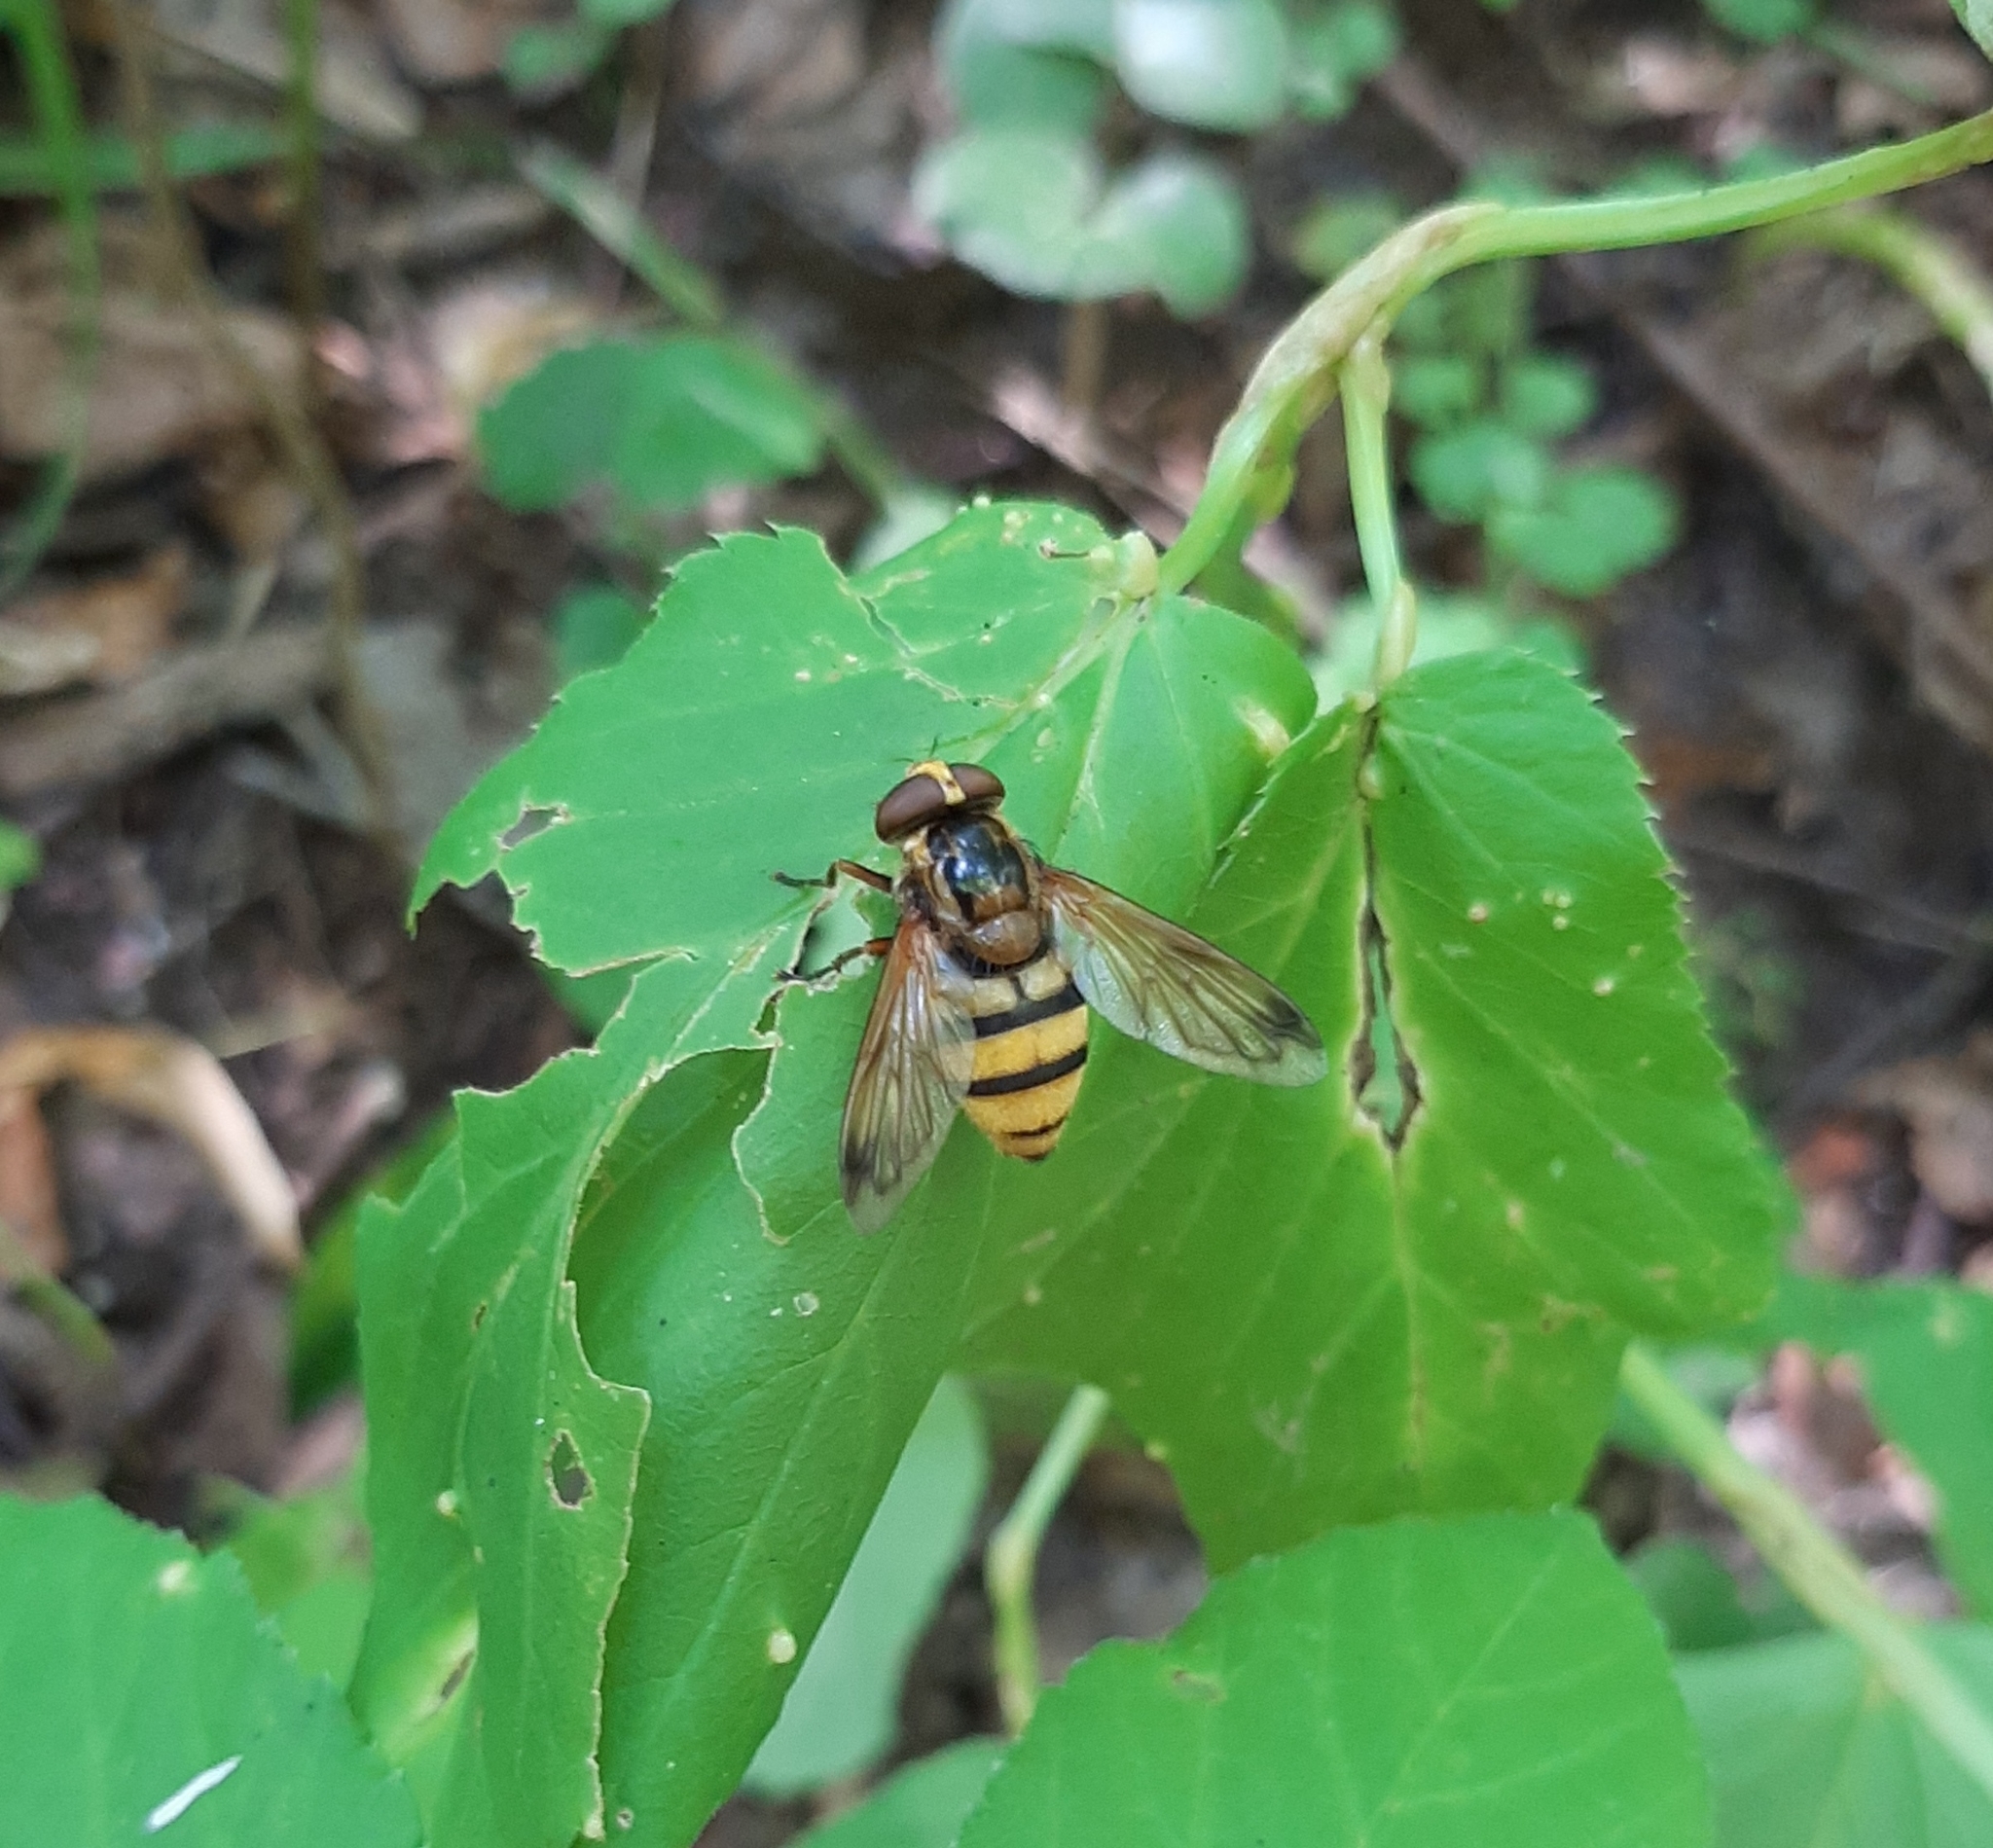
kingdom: Animalia
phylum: Arthropoda
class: Insecta
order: Diptera
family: Syrphidae
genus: Volucella
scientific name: Volucella inanis
